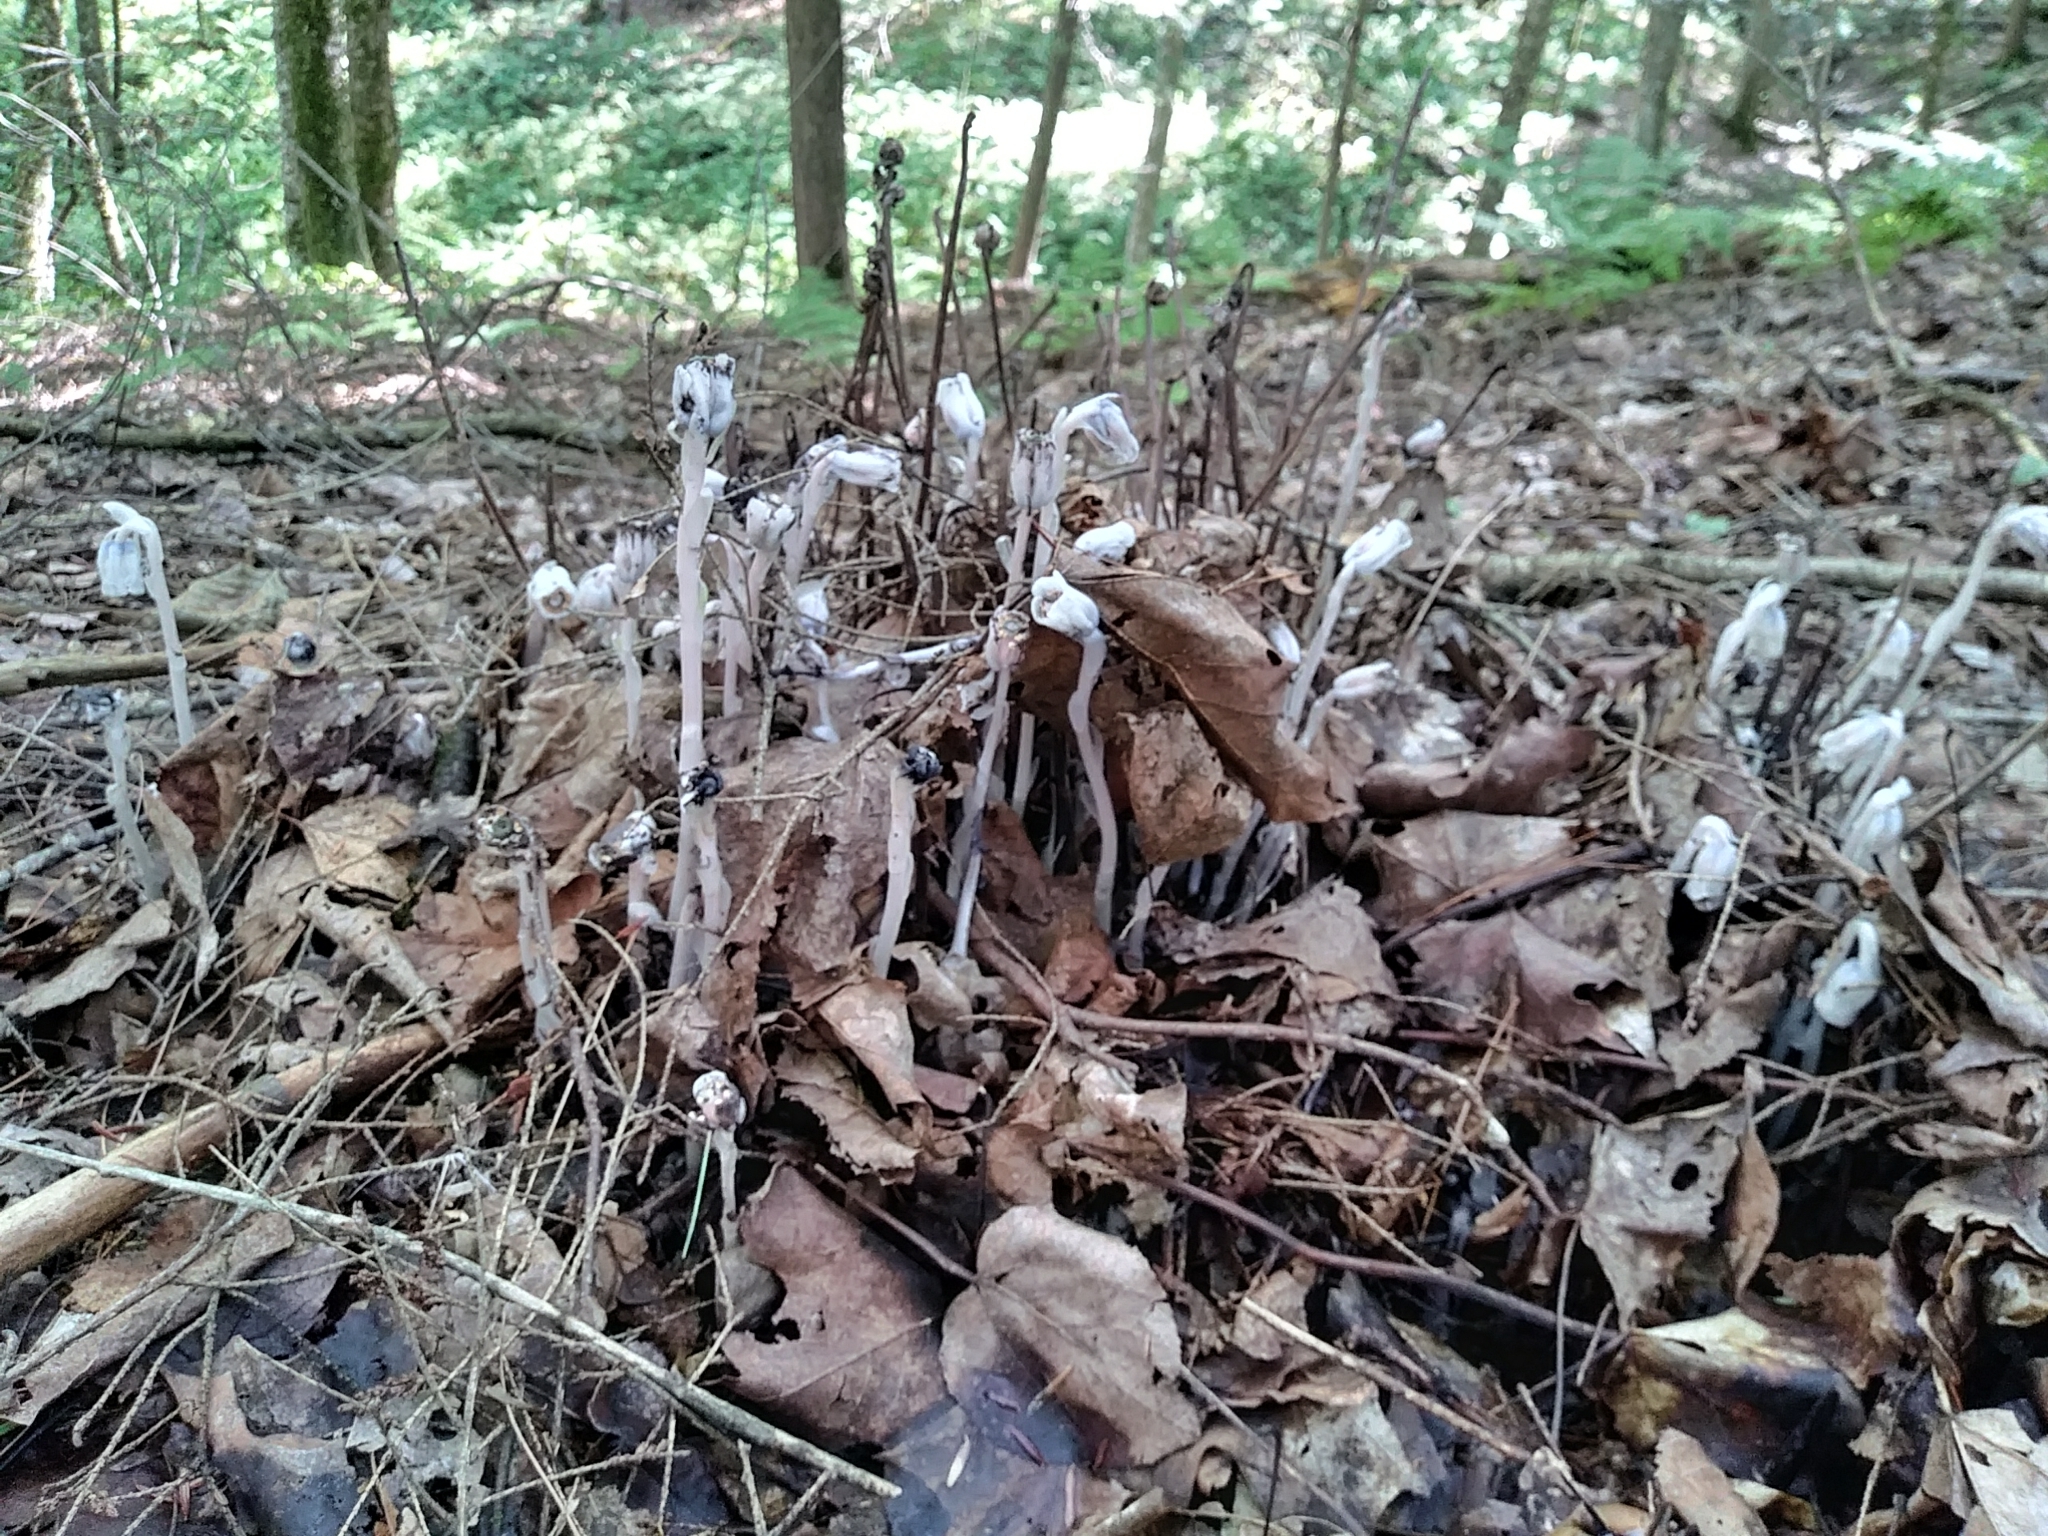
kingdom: Plantae
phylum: Tracheophyta
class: Magnoliopsida
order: Ericales
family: Ericaceae
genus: Monotropa
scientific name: Monotropa uniflora
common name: Convulsion root
